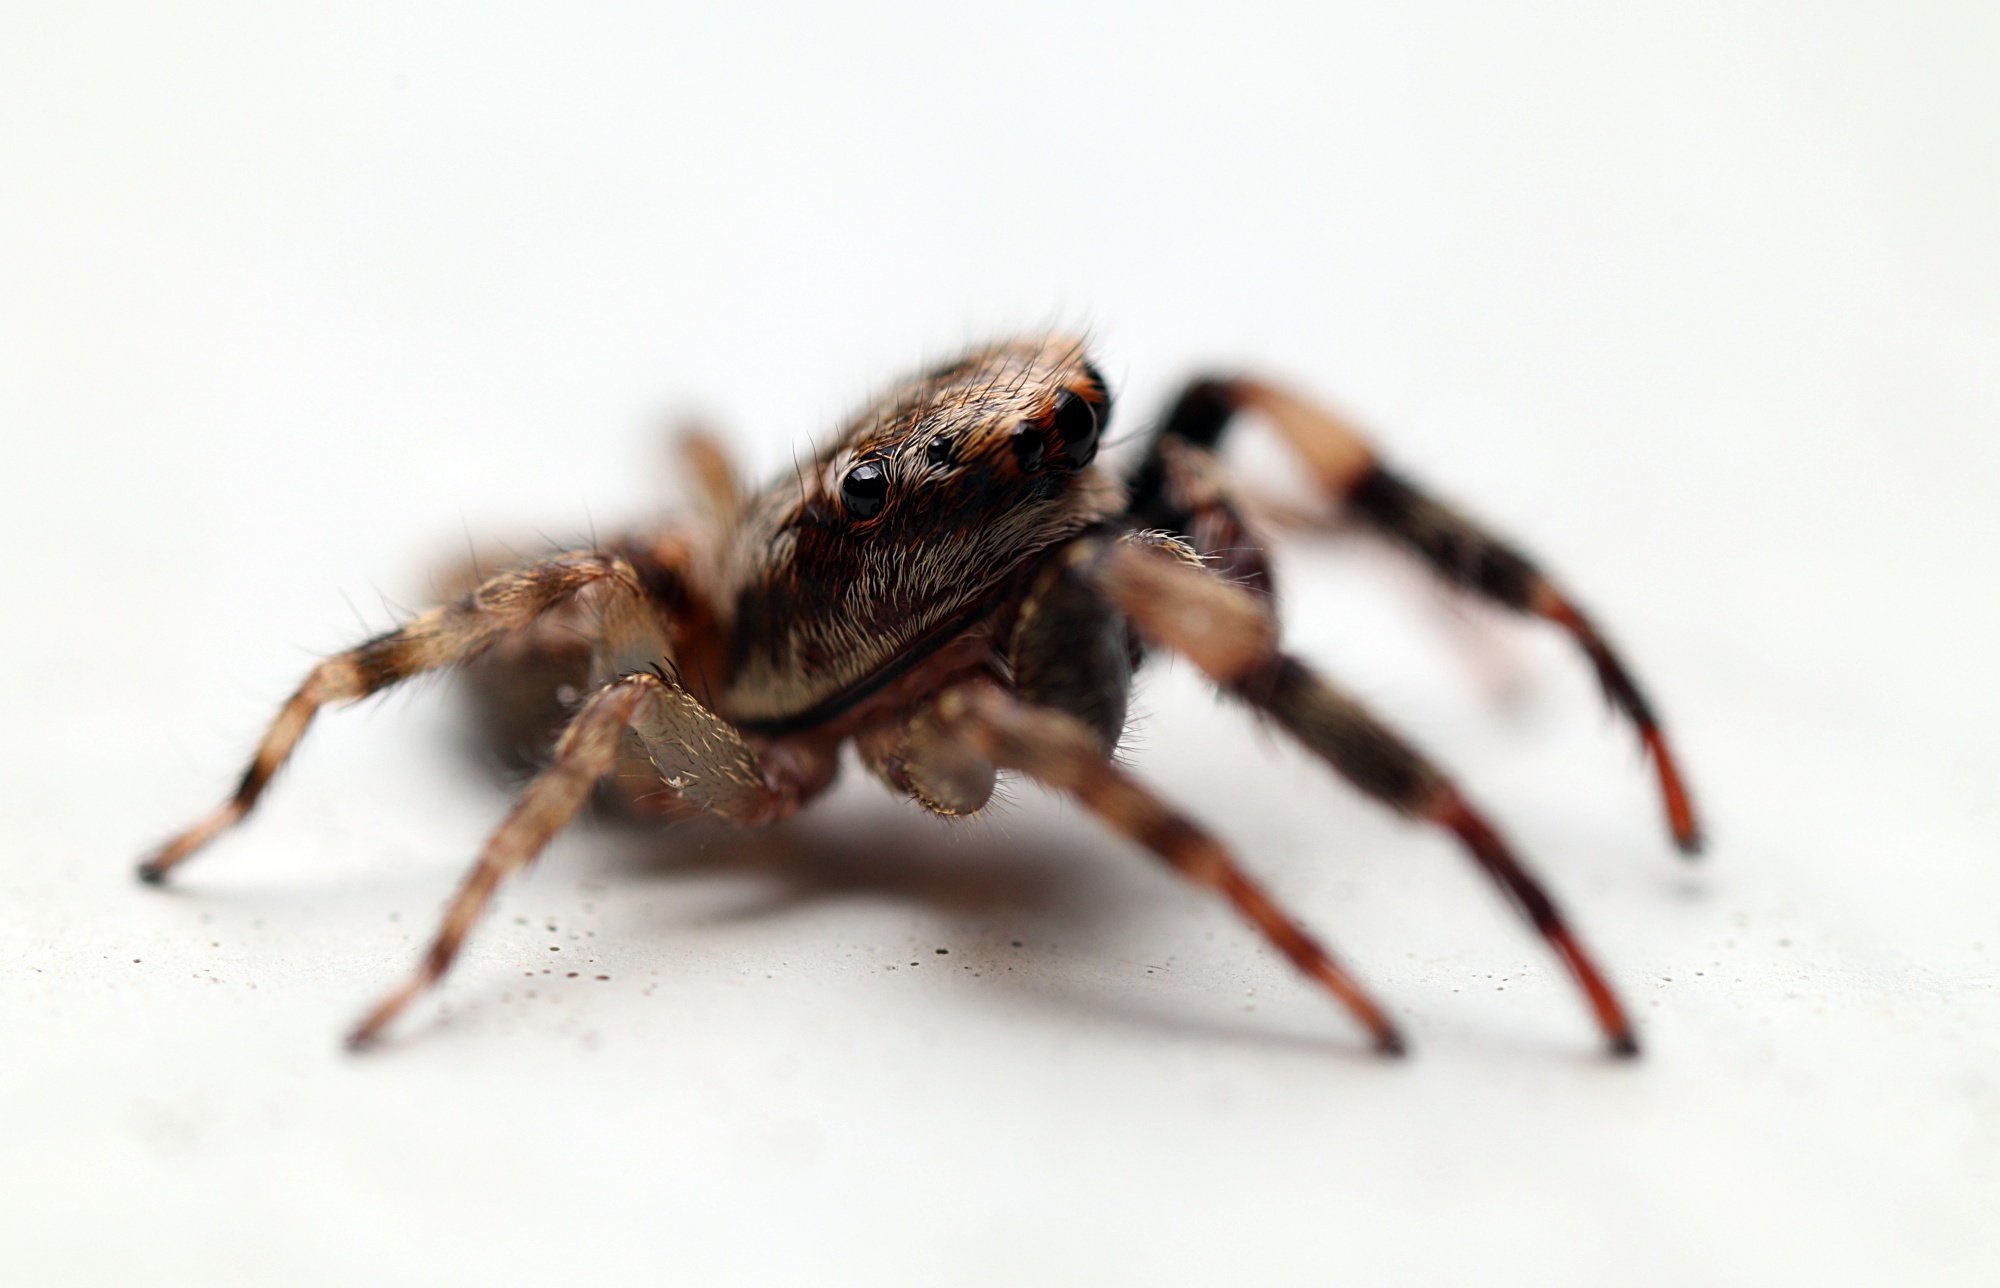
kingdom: Animalia
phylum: Arthropoda
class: Arachnida
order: Araneae
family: Salticidae
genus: Trite
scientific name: Trite auricoma
